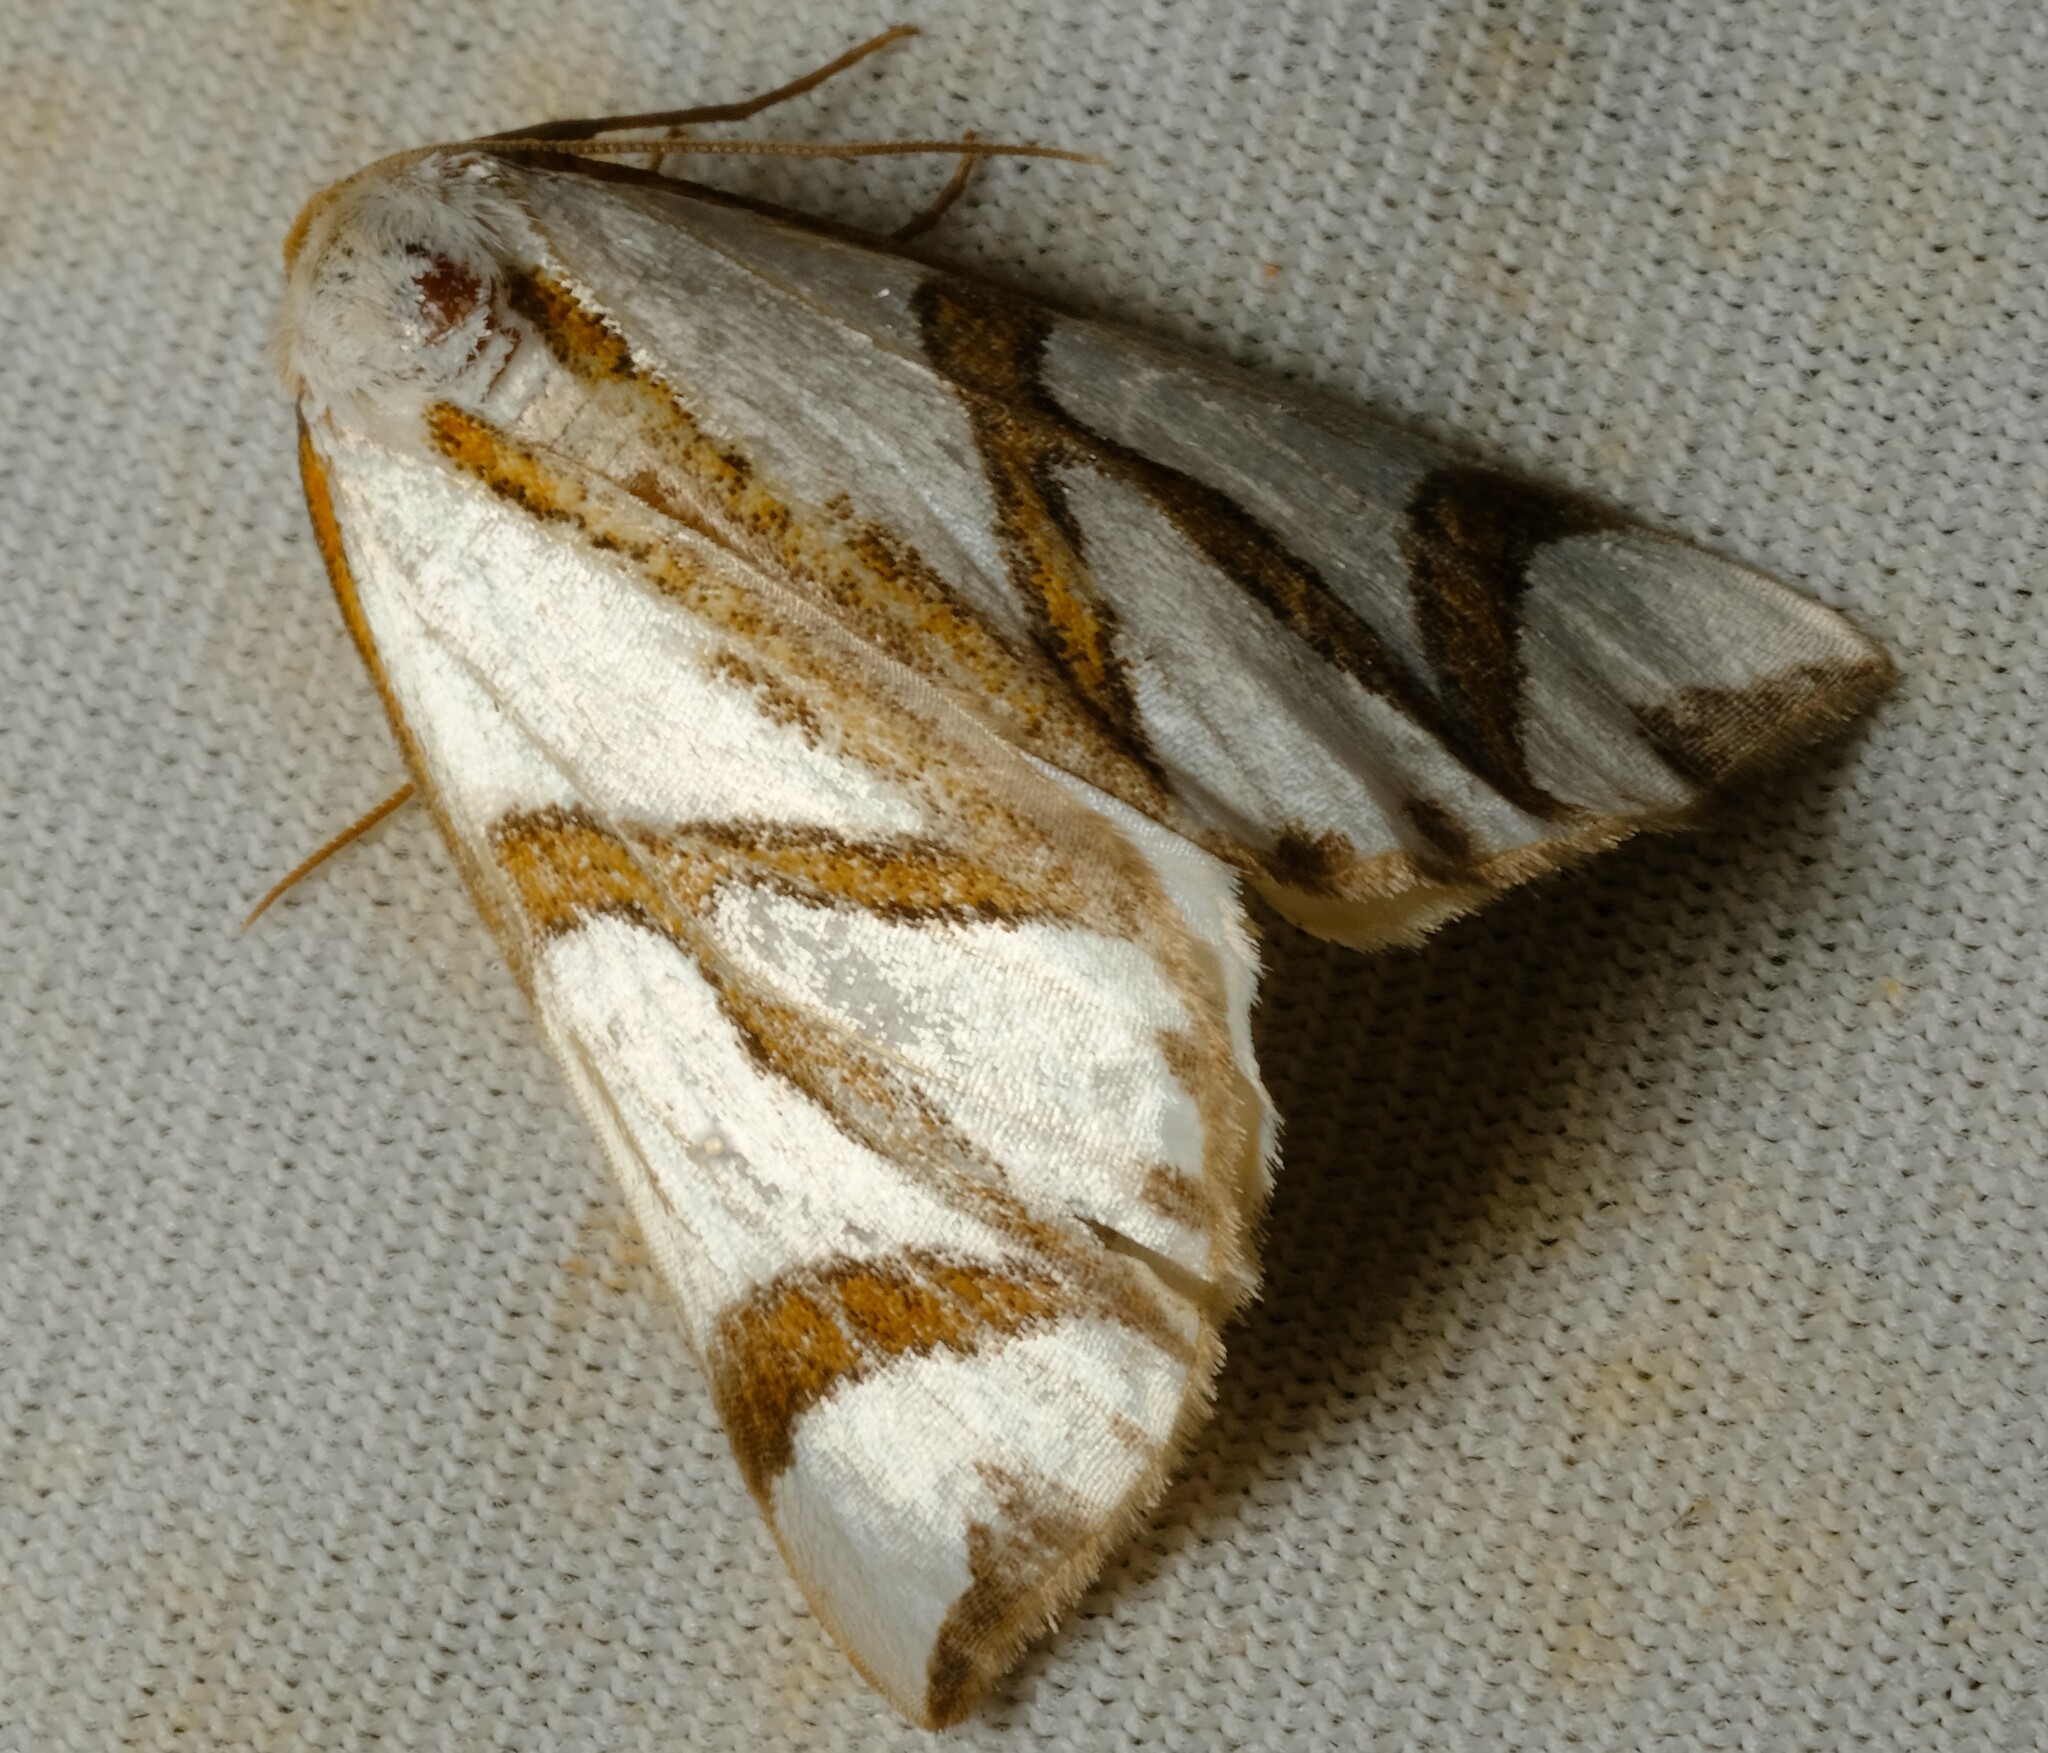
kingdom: Animalia
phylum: Arthropoda
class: Insecta
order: Lepidoptera
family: Geometridae
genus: Thalaina
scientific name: Thalaina clara
